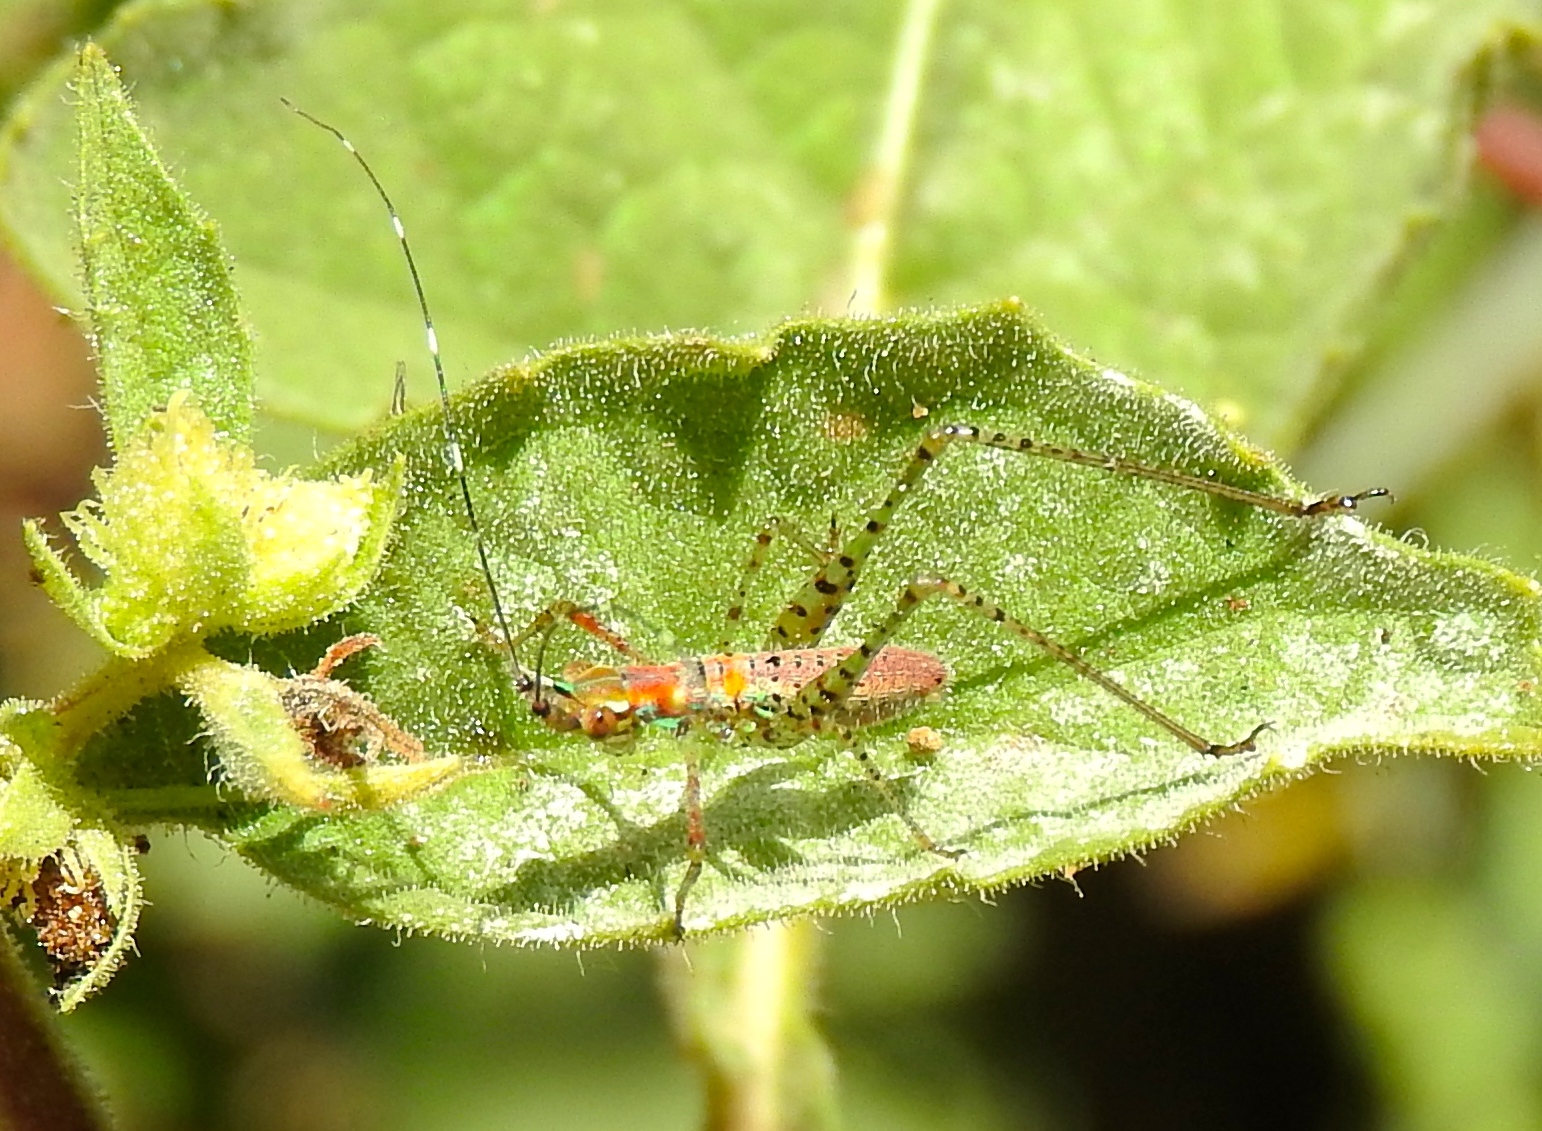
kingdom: Animalia
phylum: Arthropoda
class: Insecta
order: Orthoptera
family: Tettigoniidae
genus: Scudderia
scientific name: Scudderia
